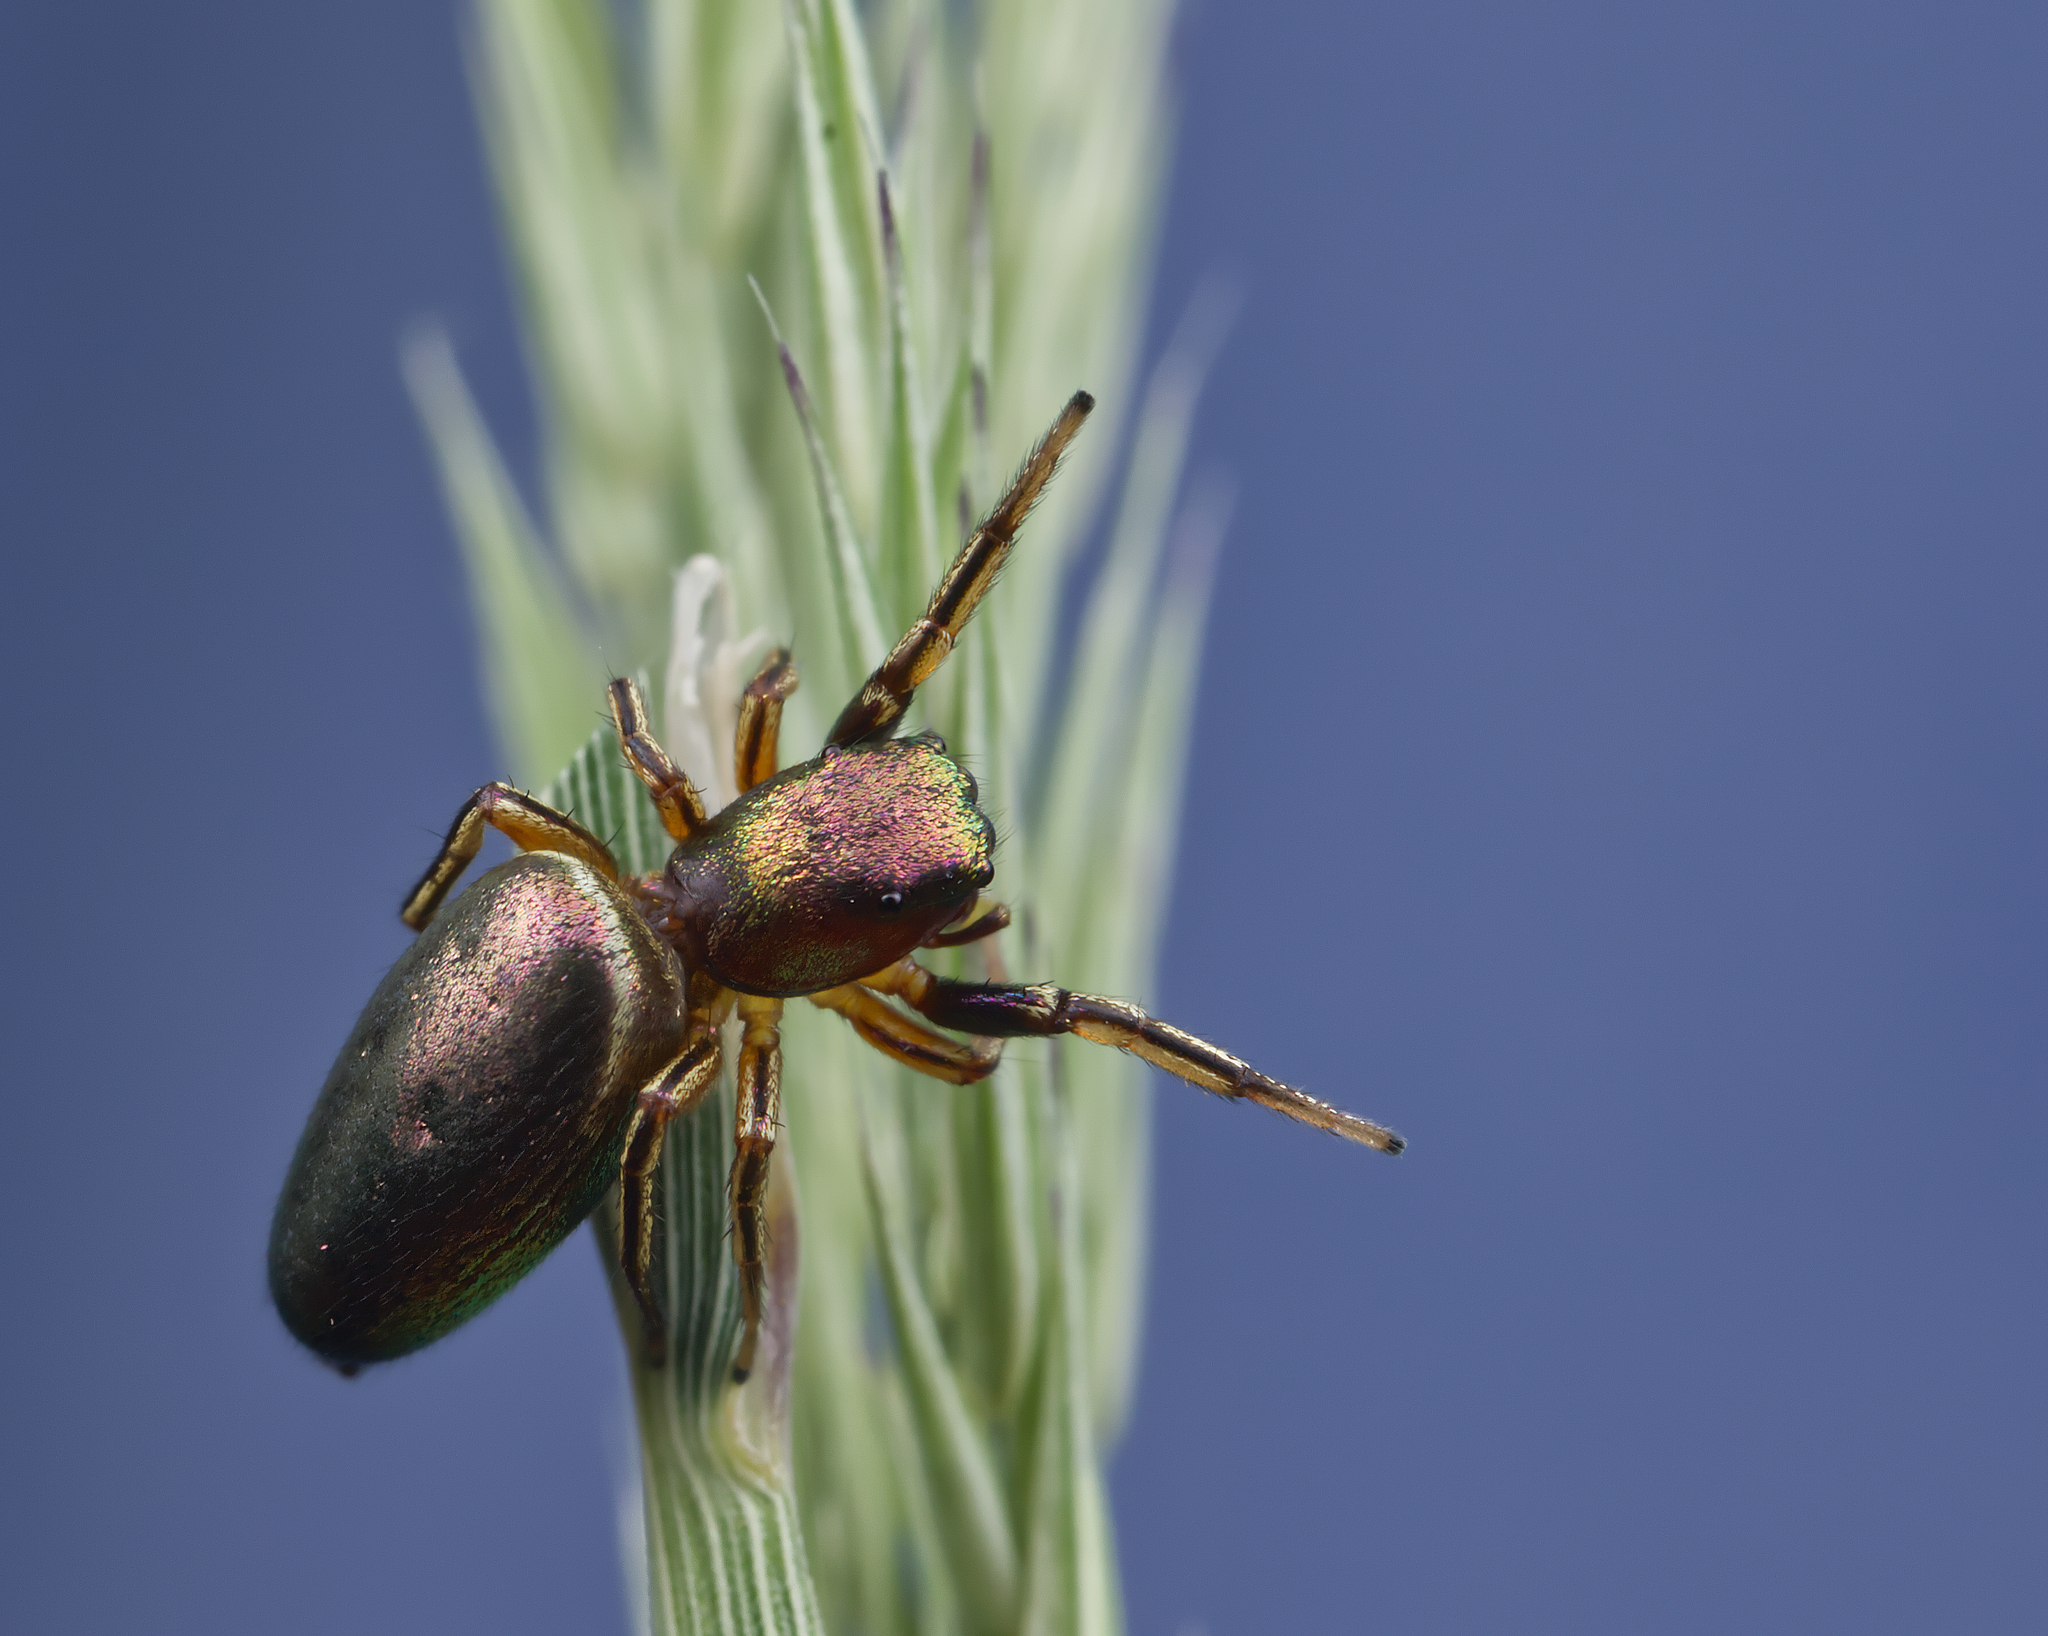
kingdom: Animalia
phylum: Arthropoda
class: Arachnida
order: Araneae
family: Salticidae
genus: Tutelina
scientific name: Tutelina elegans
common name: Thin-spined jumping spider
